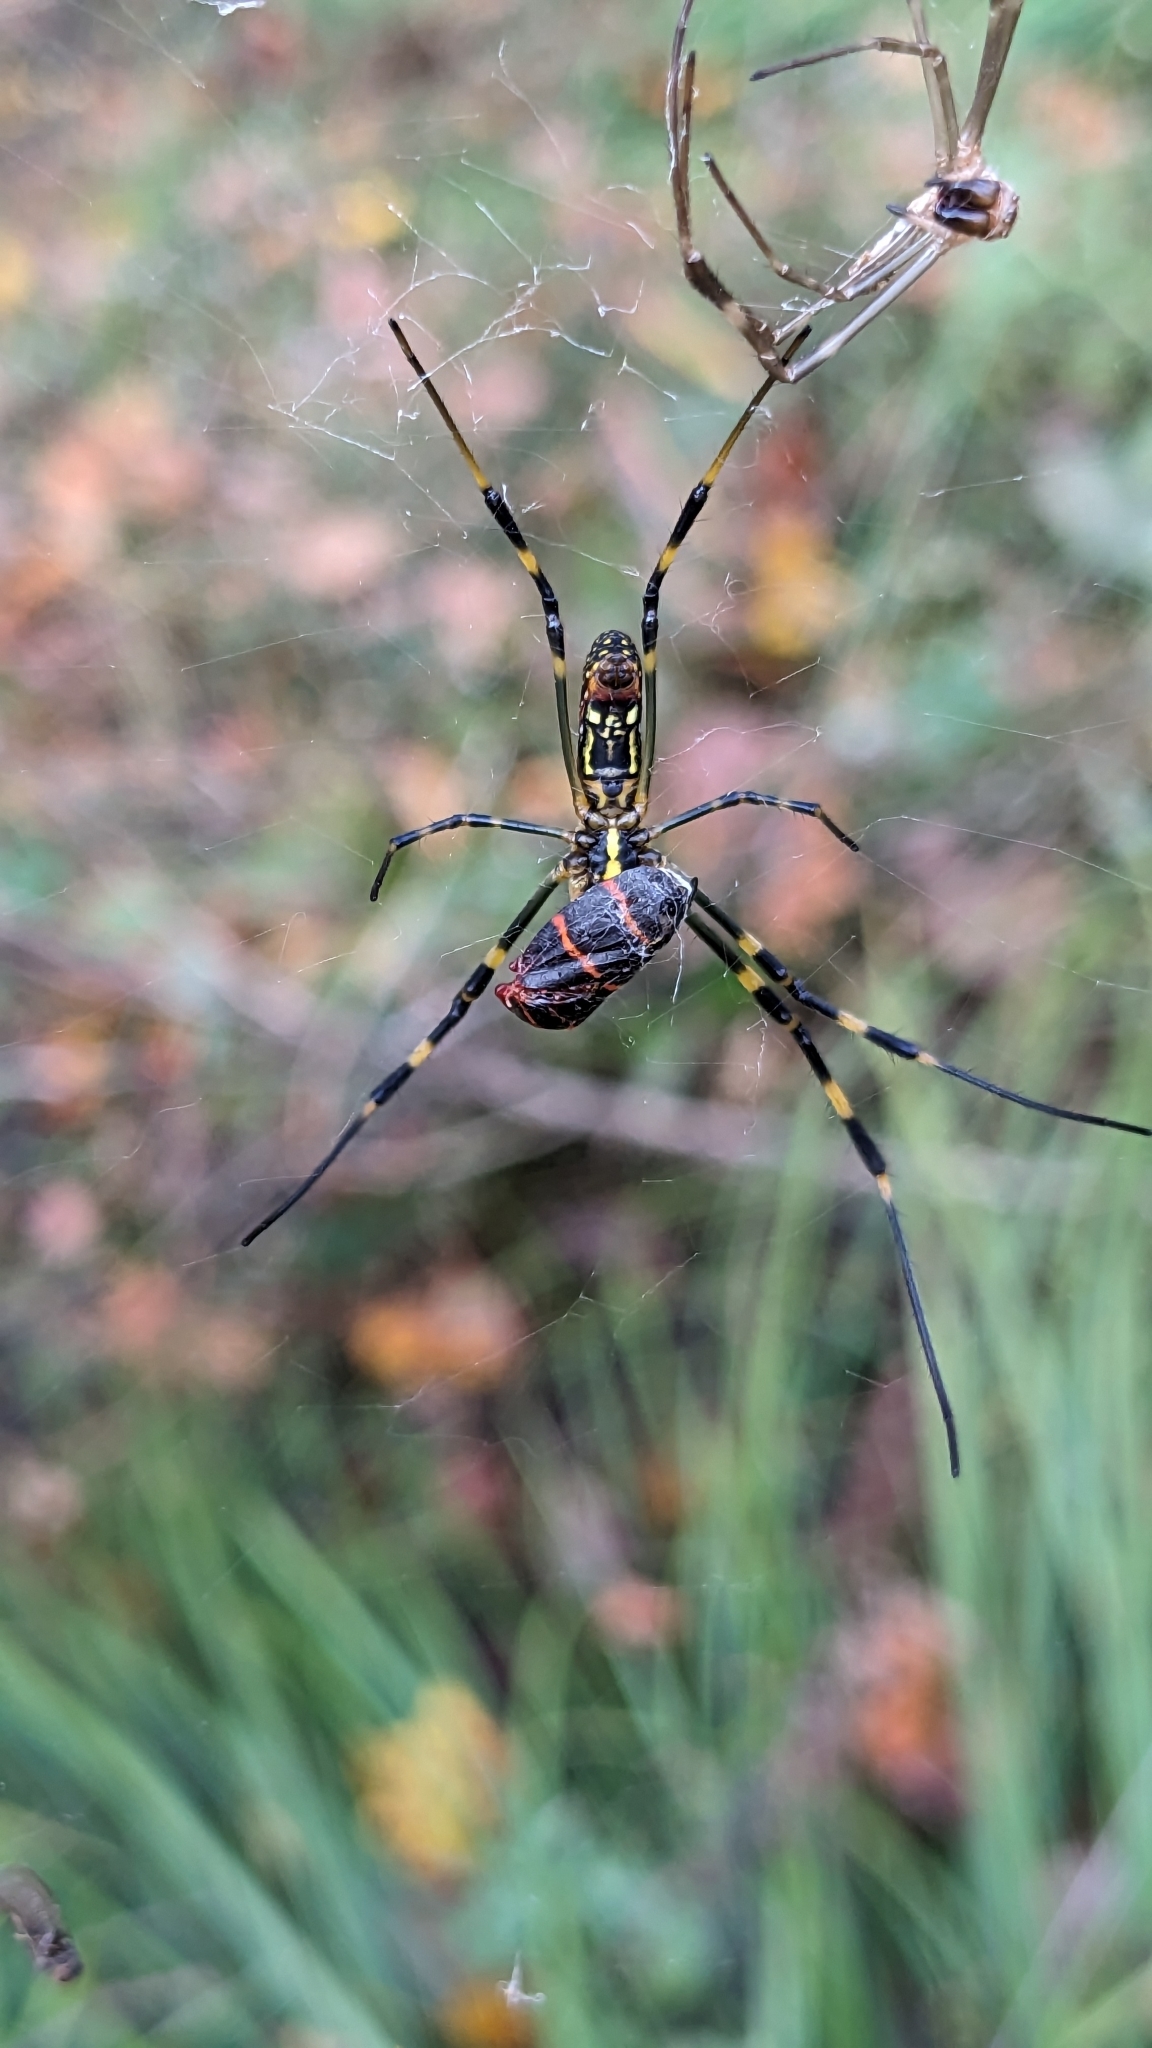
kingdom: Animalia
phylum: Arthropoda
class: Arachnida
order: Araneae
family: Araneidae
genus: Trichonephila
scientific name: Trichonephila clavata
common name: Jorō spider
